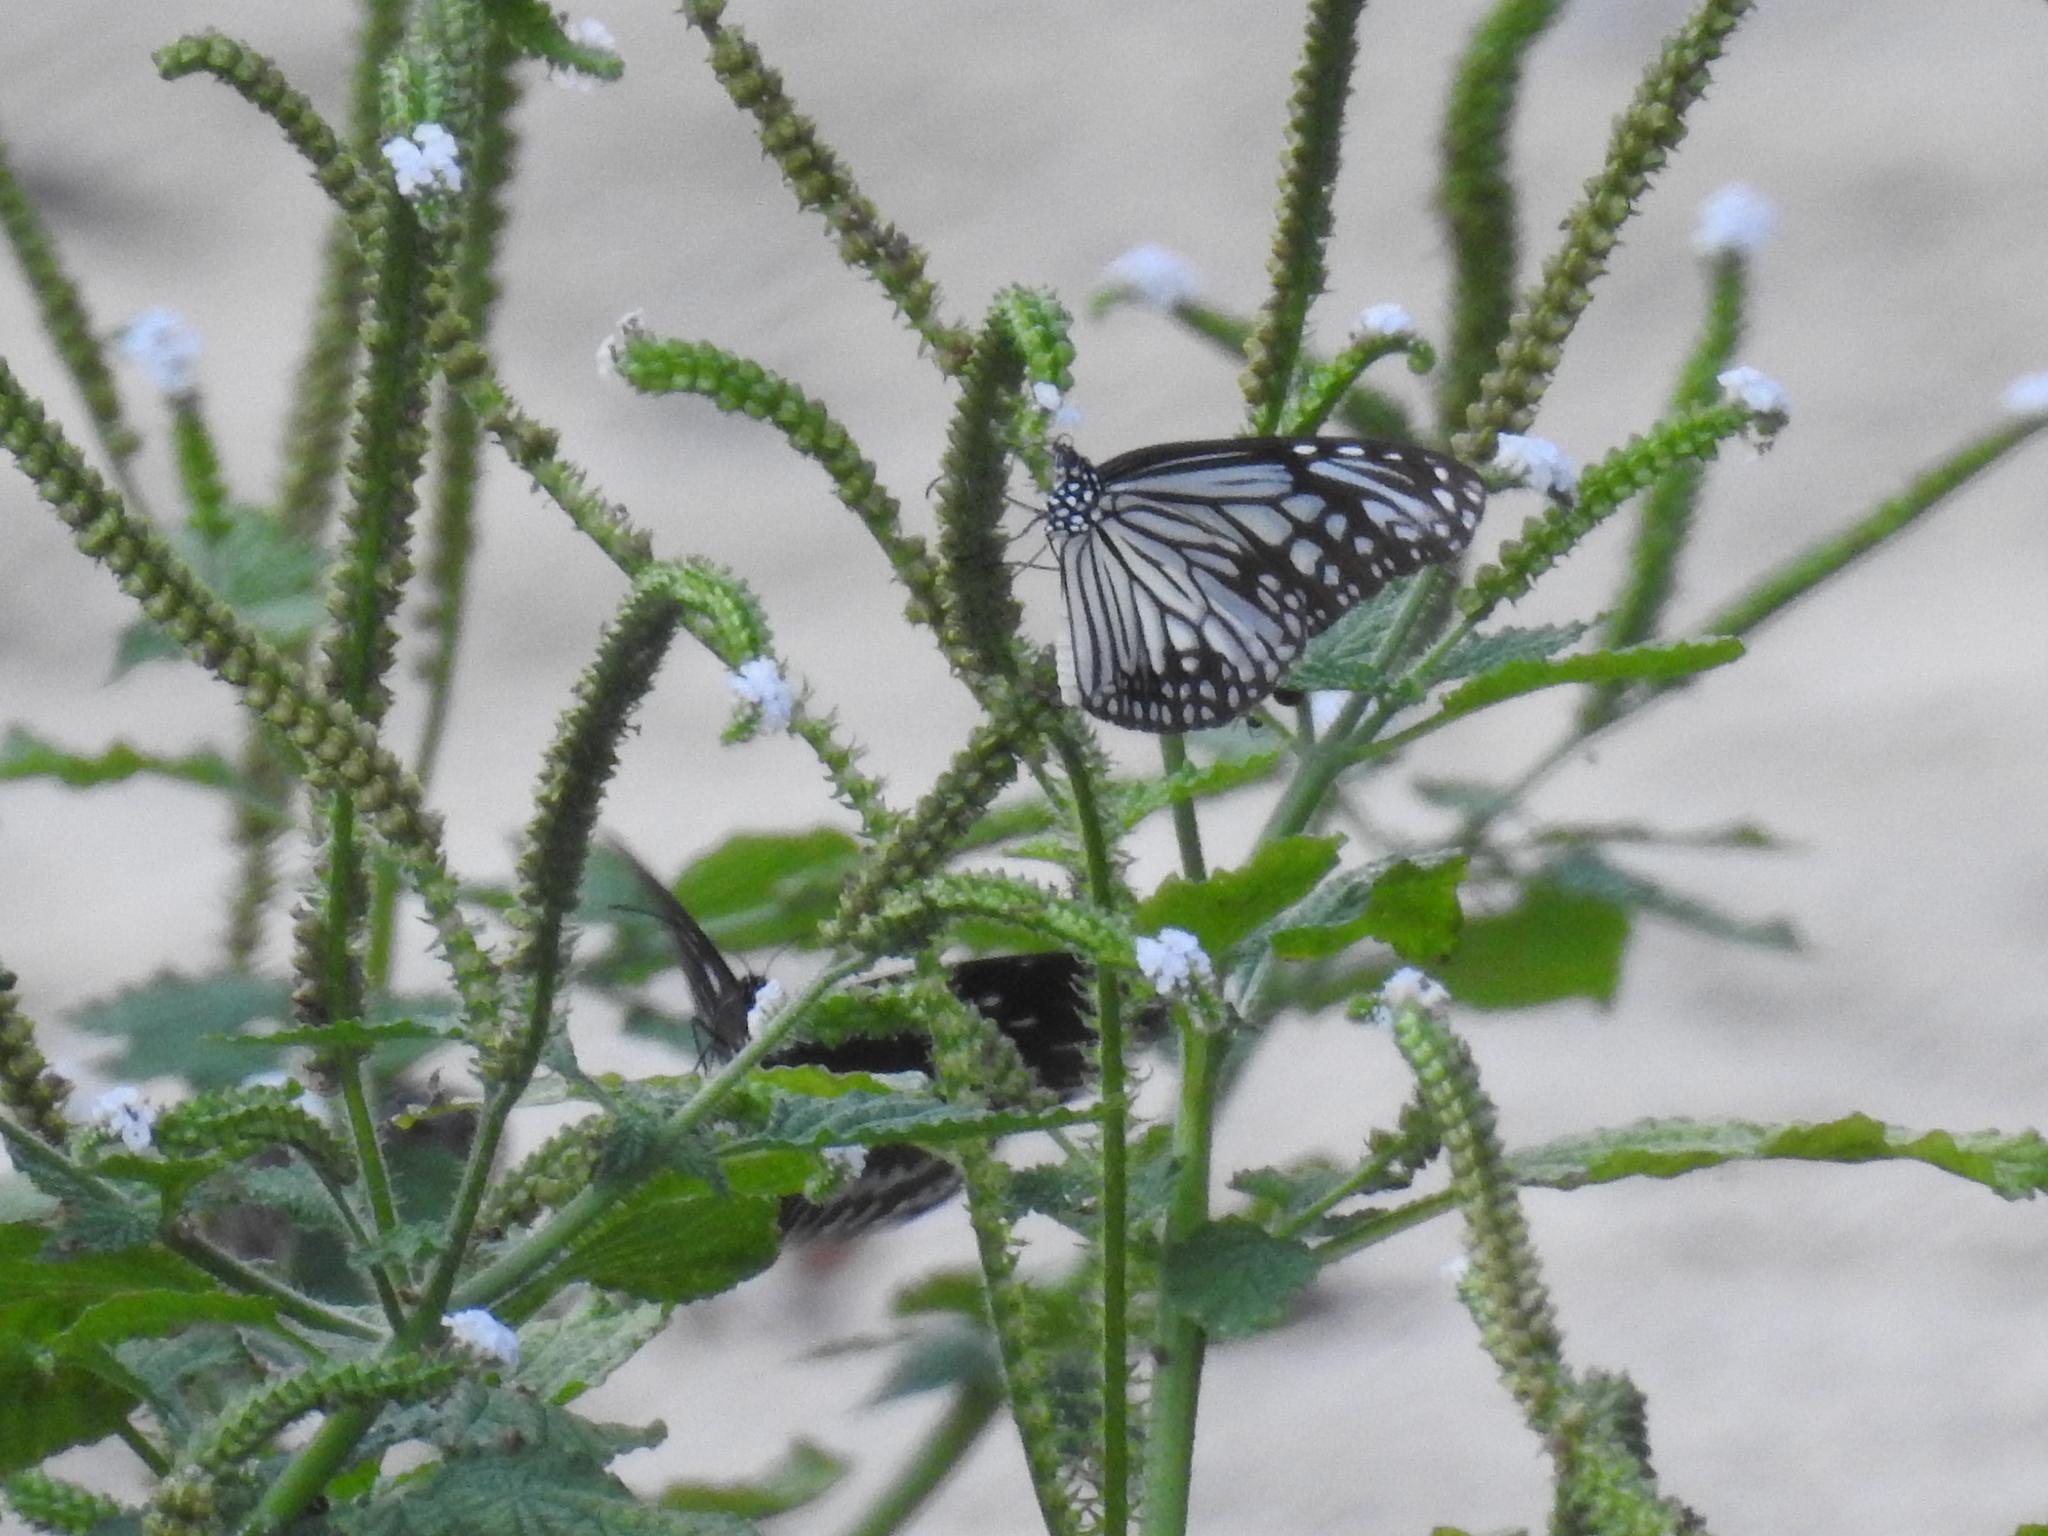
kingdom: Animalia
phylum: Arthropoda
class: Insecta
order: Lepidoptera
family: Nymphalidae
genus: Ideopsis
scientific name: Ideopsis similis
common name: Ceylon blue glassy tiger
